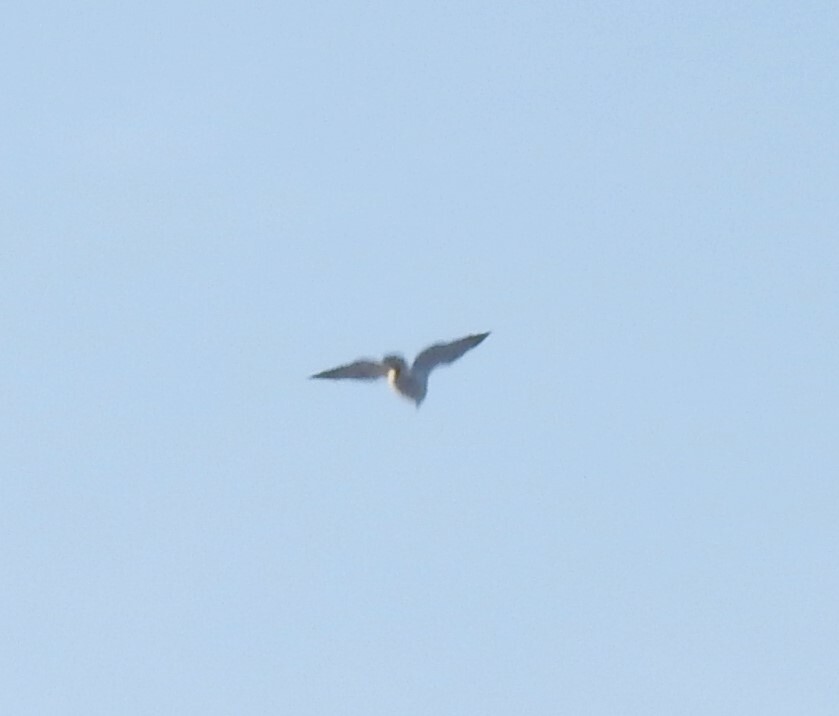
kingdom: Animalia
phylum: Chordata
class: Aves
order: Accipitriformes
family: Accipitridae
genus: Accipiter
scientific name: Accipiter gentilis
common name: Northern goshawk
